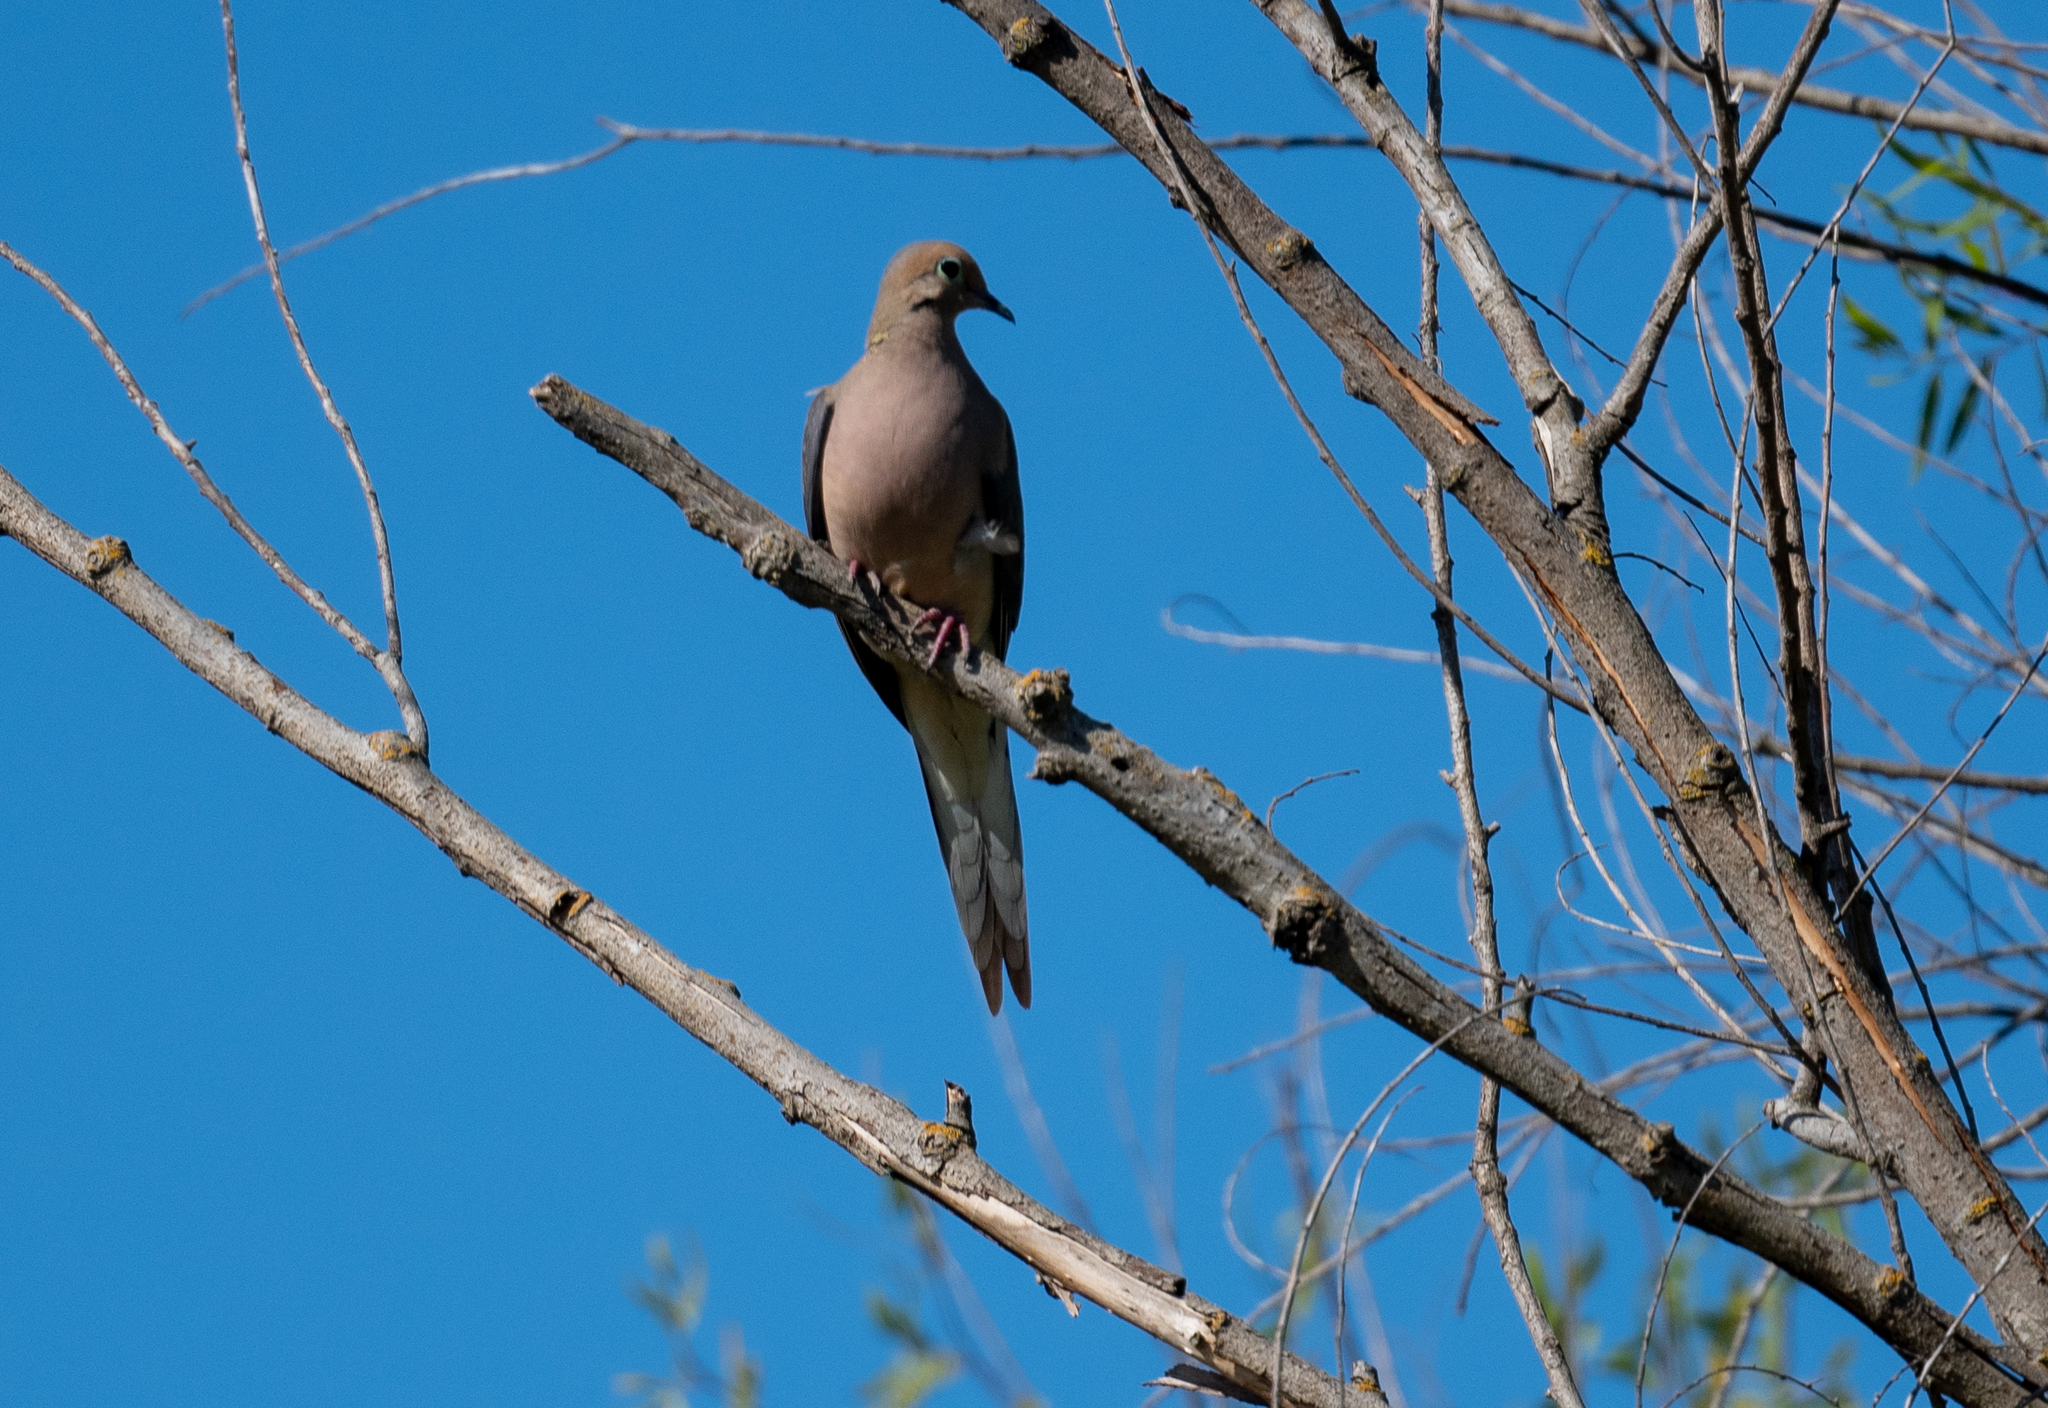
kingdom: Animalia
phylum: Chordata
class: Aves
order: Columbiformes
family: Columbidae
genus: Zenaida
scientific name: Zenaida macroura
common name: Mourning dove
